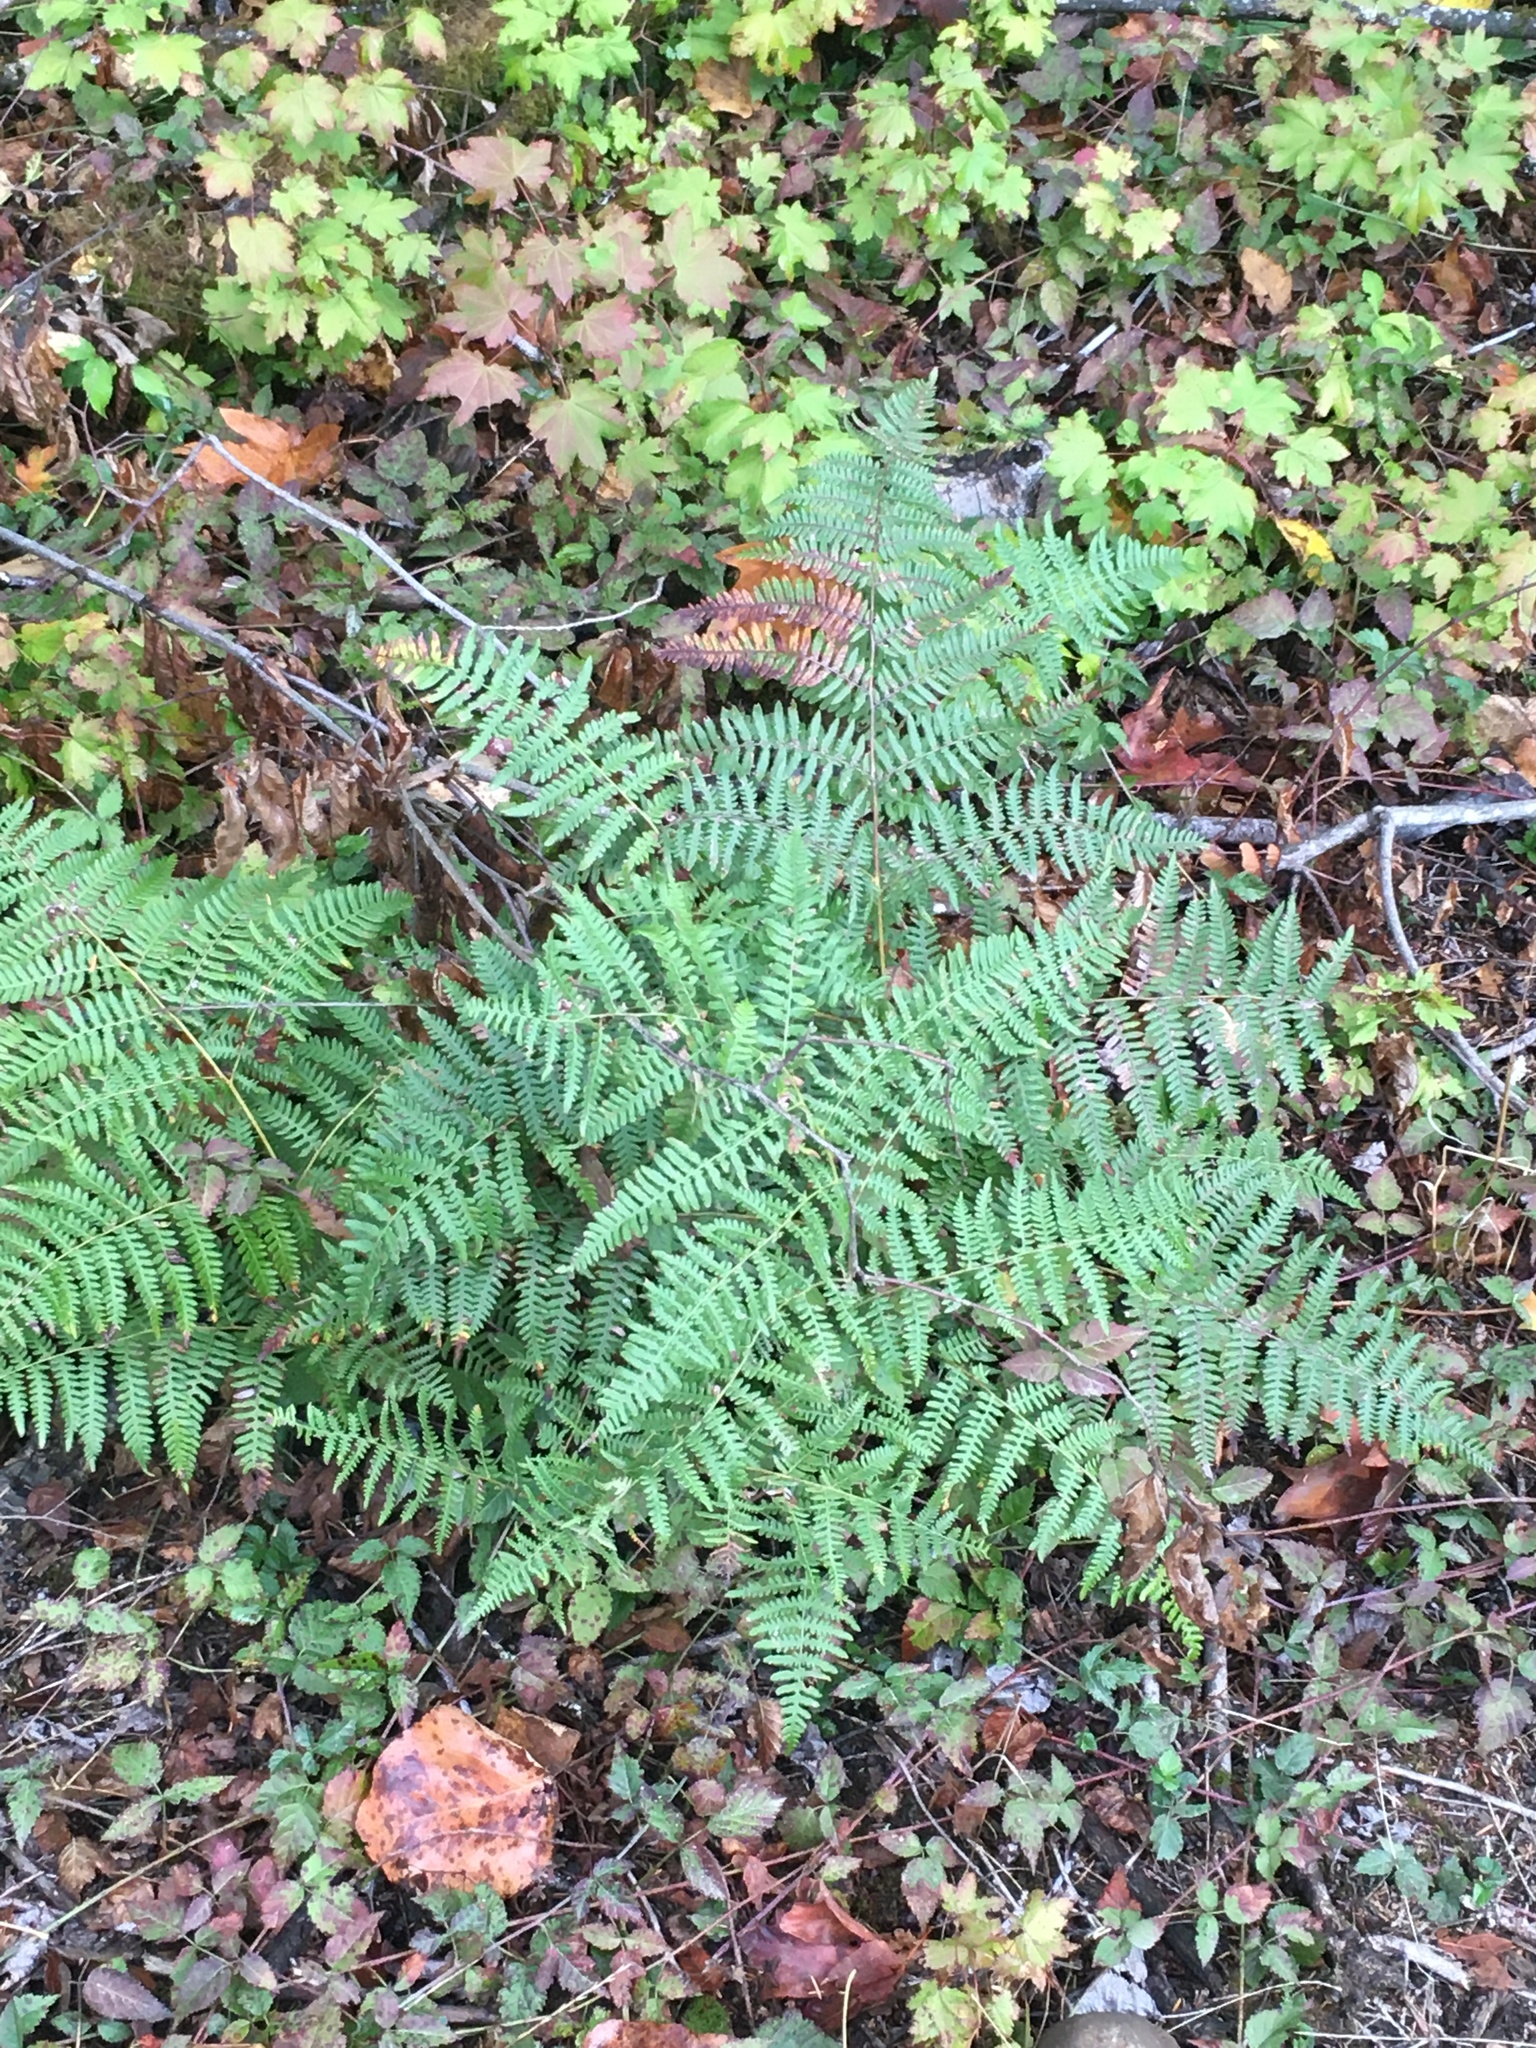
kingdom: Plantae
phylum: Tracheophyta
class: Polypodiopsida
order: Polypodiales
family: Dennstaedtiaceae
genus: Pteridium
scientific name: Pteridium aquilinum
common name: Bracken
